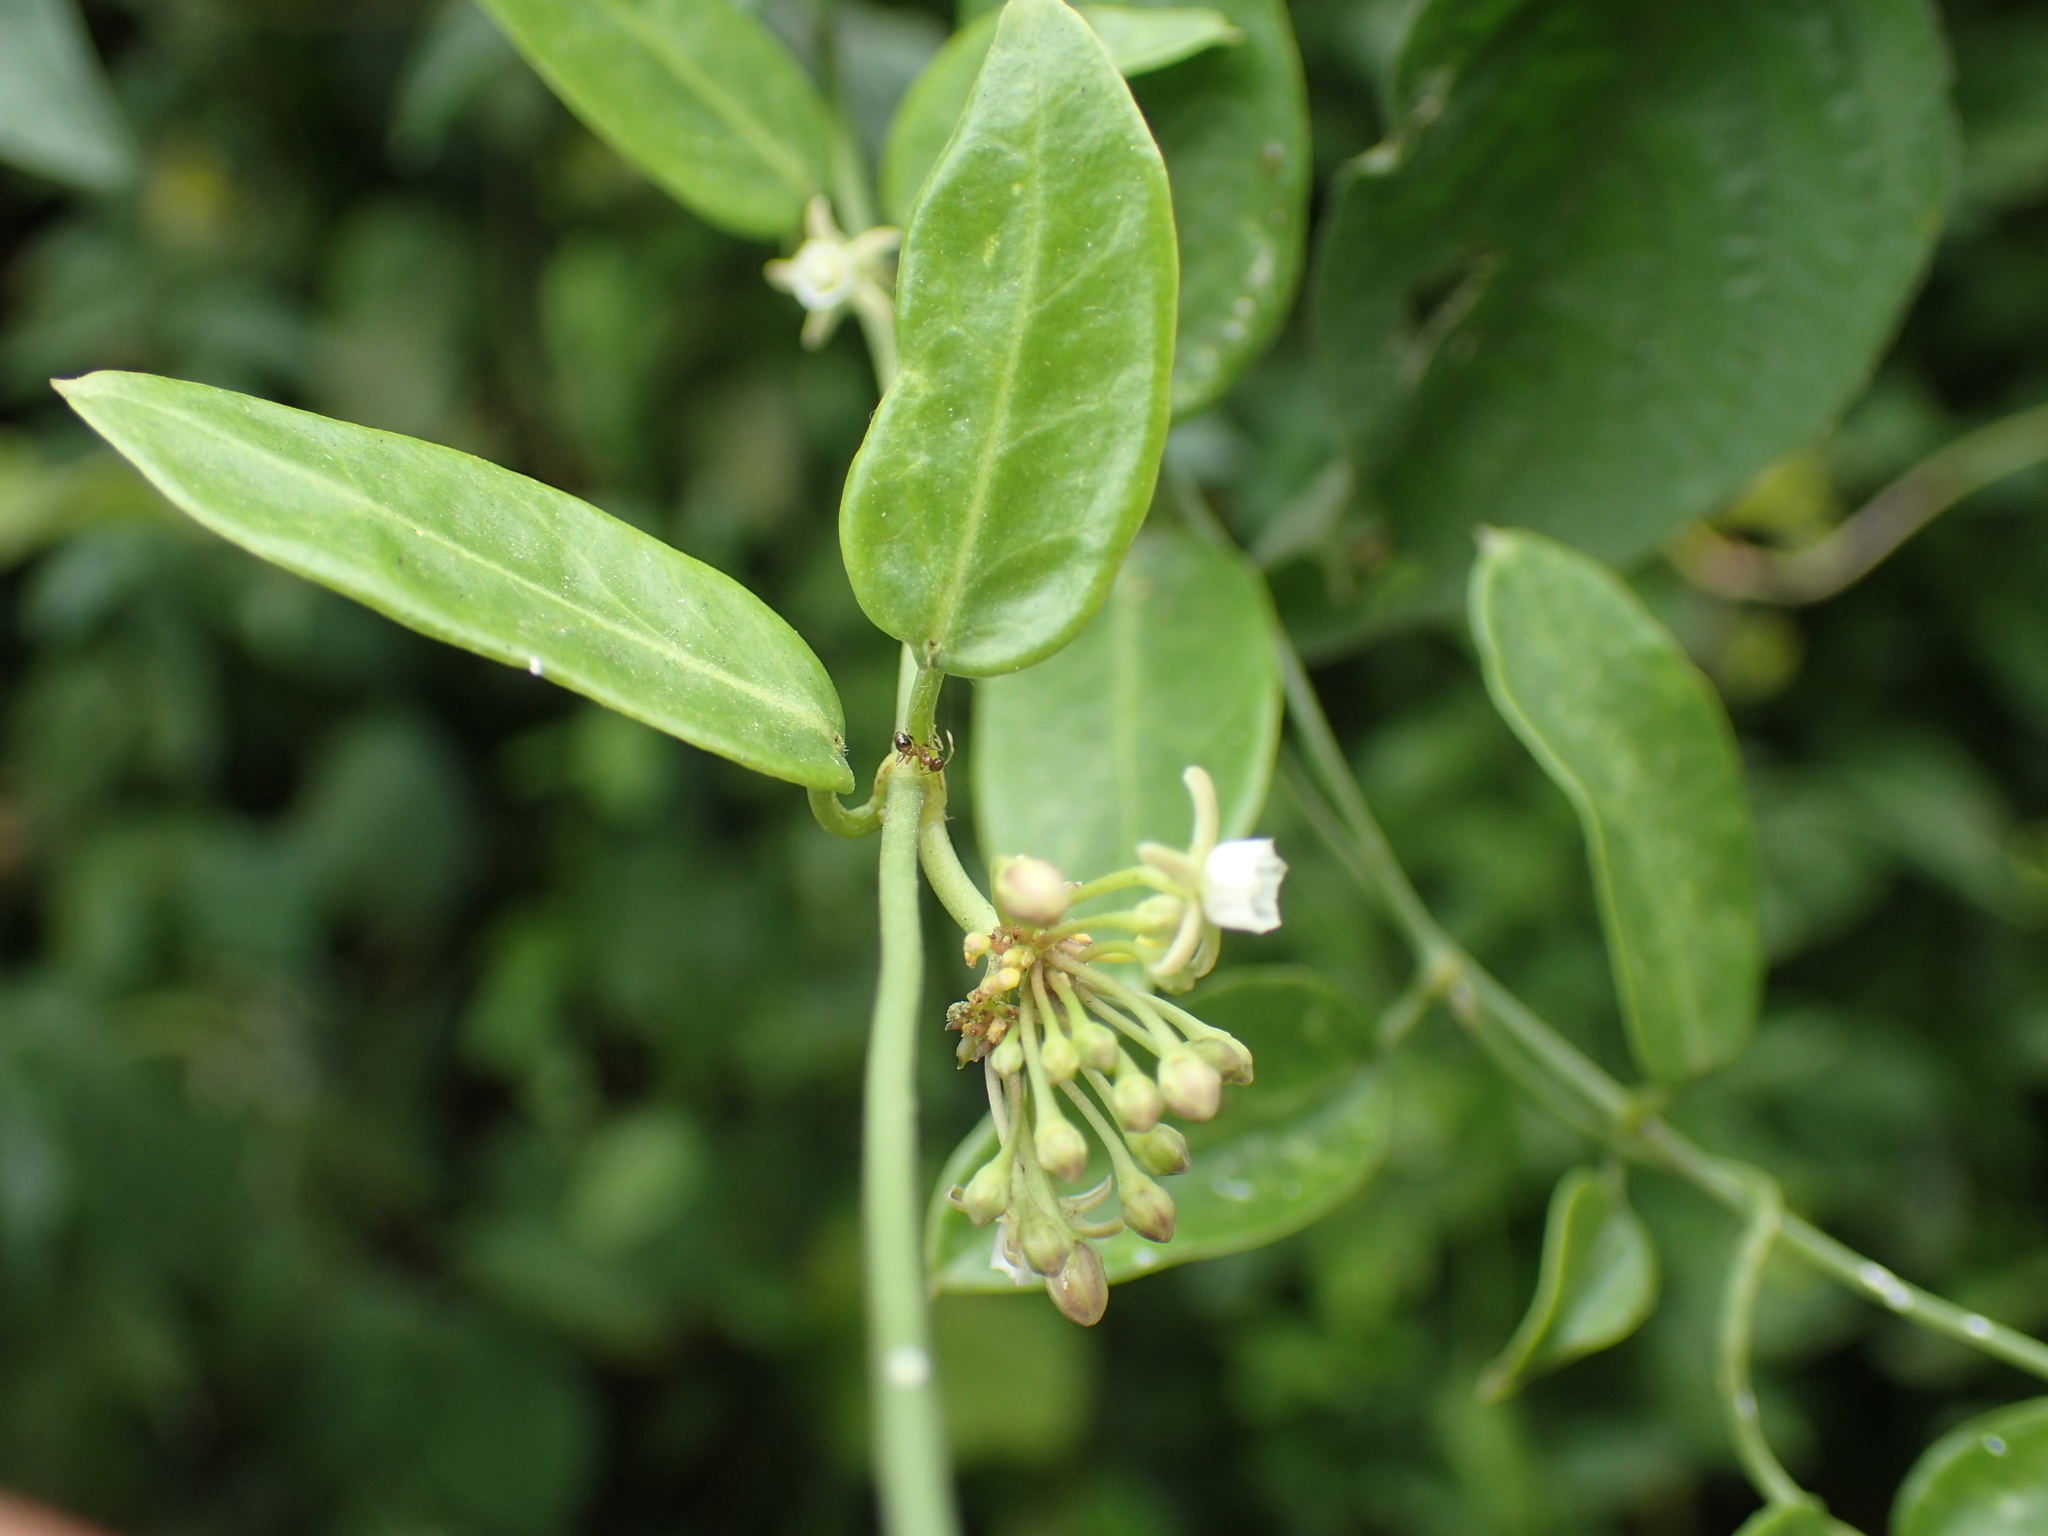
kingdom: Plantae
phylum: Tracheophyta
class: Magnoliopsida
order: Gentianales
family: Apocynaceae
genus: Cynanchum
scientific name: Cynanchum ellipticum
